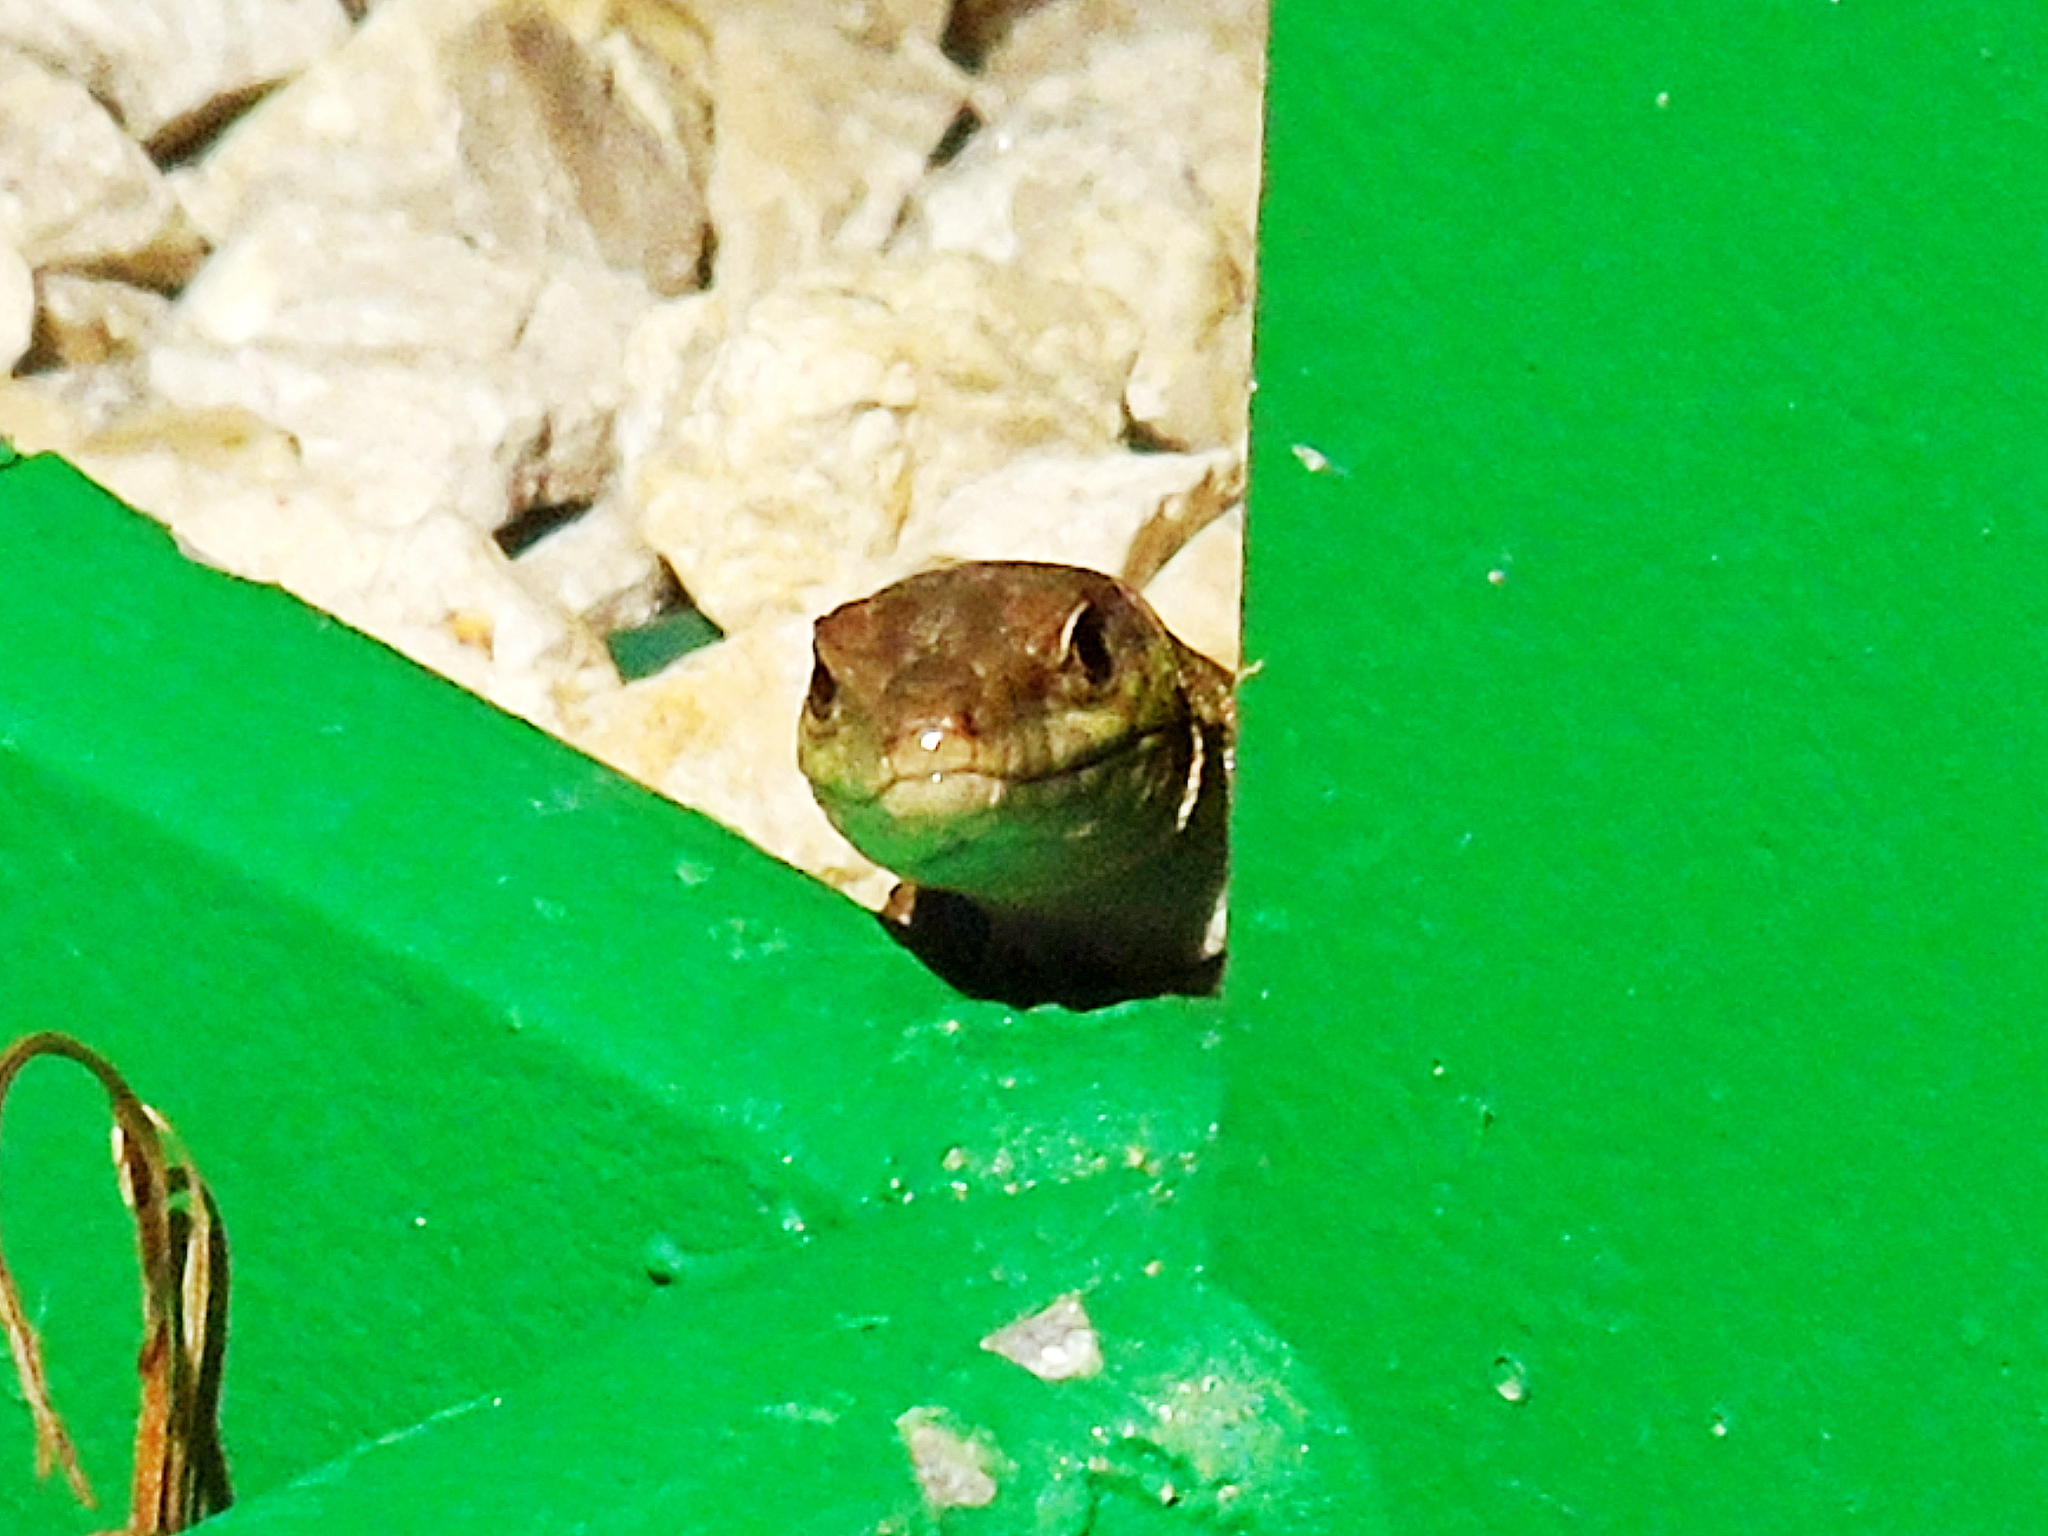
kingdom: Animalia
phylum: Chordata
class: Squamata
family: Lacertidae
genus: Podarcis
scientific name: Podarcis siculus
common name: Italian wall lizard
